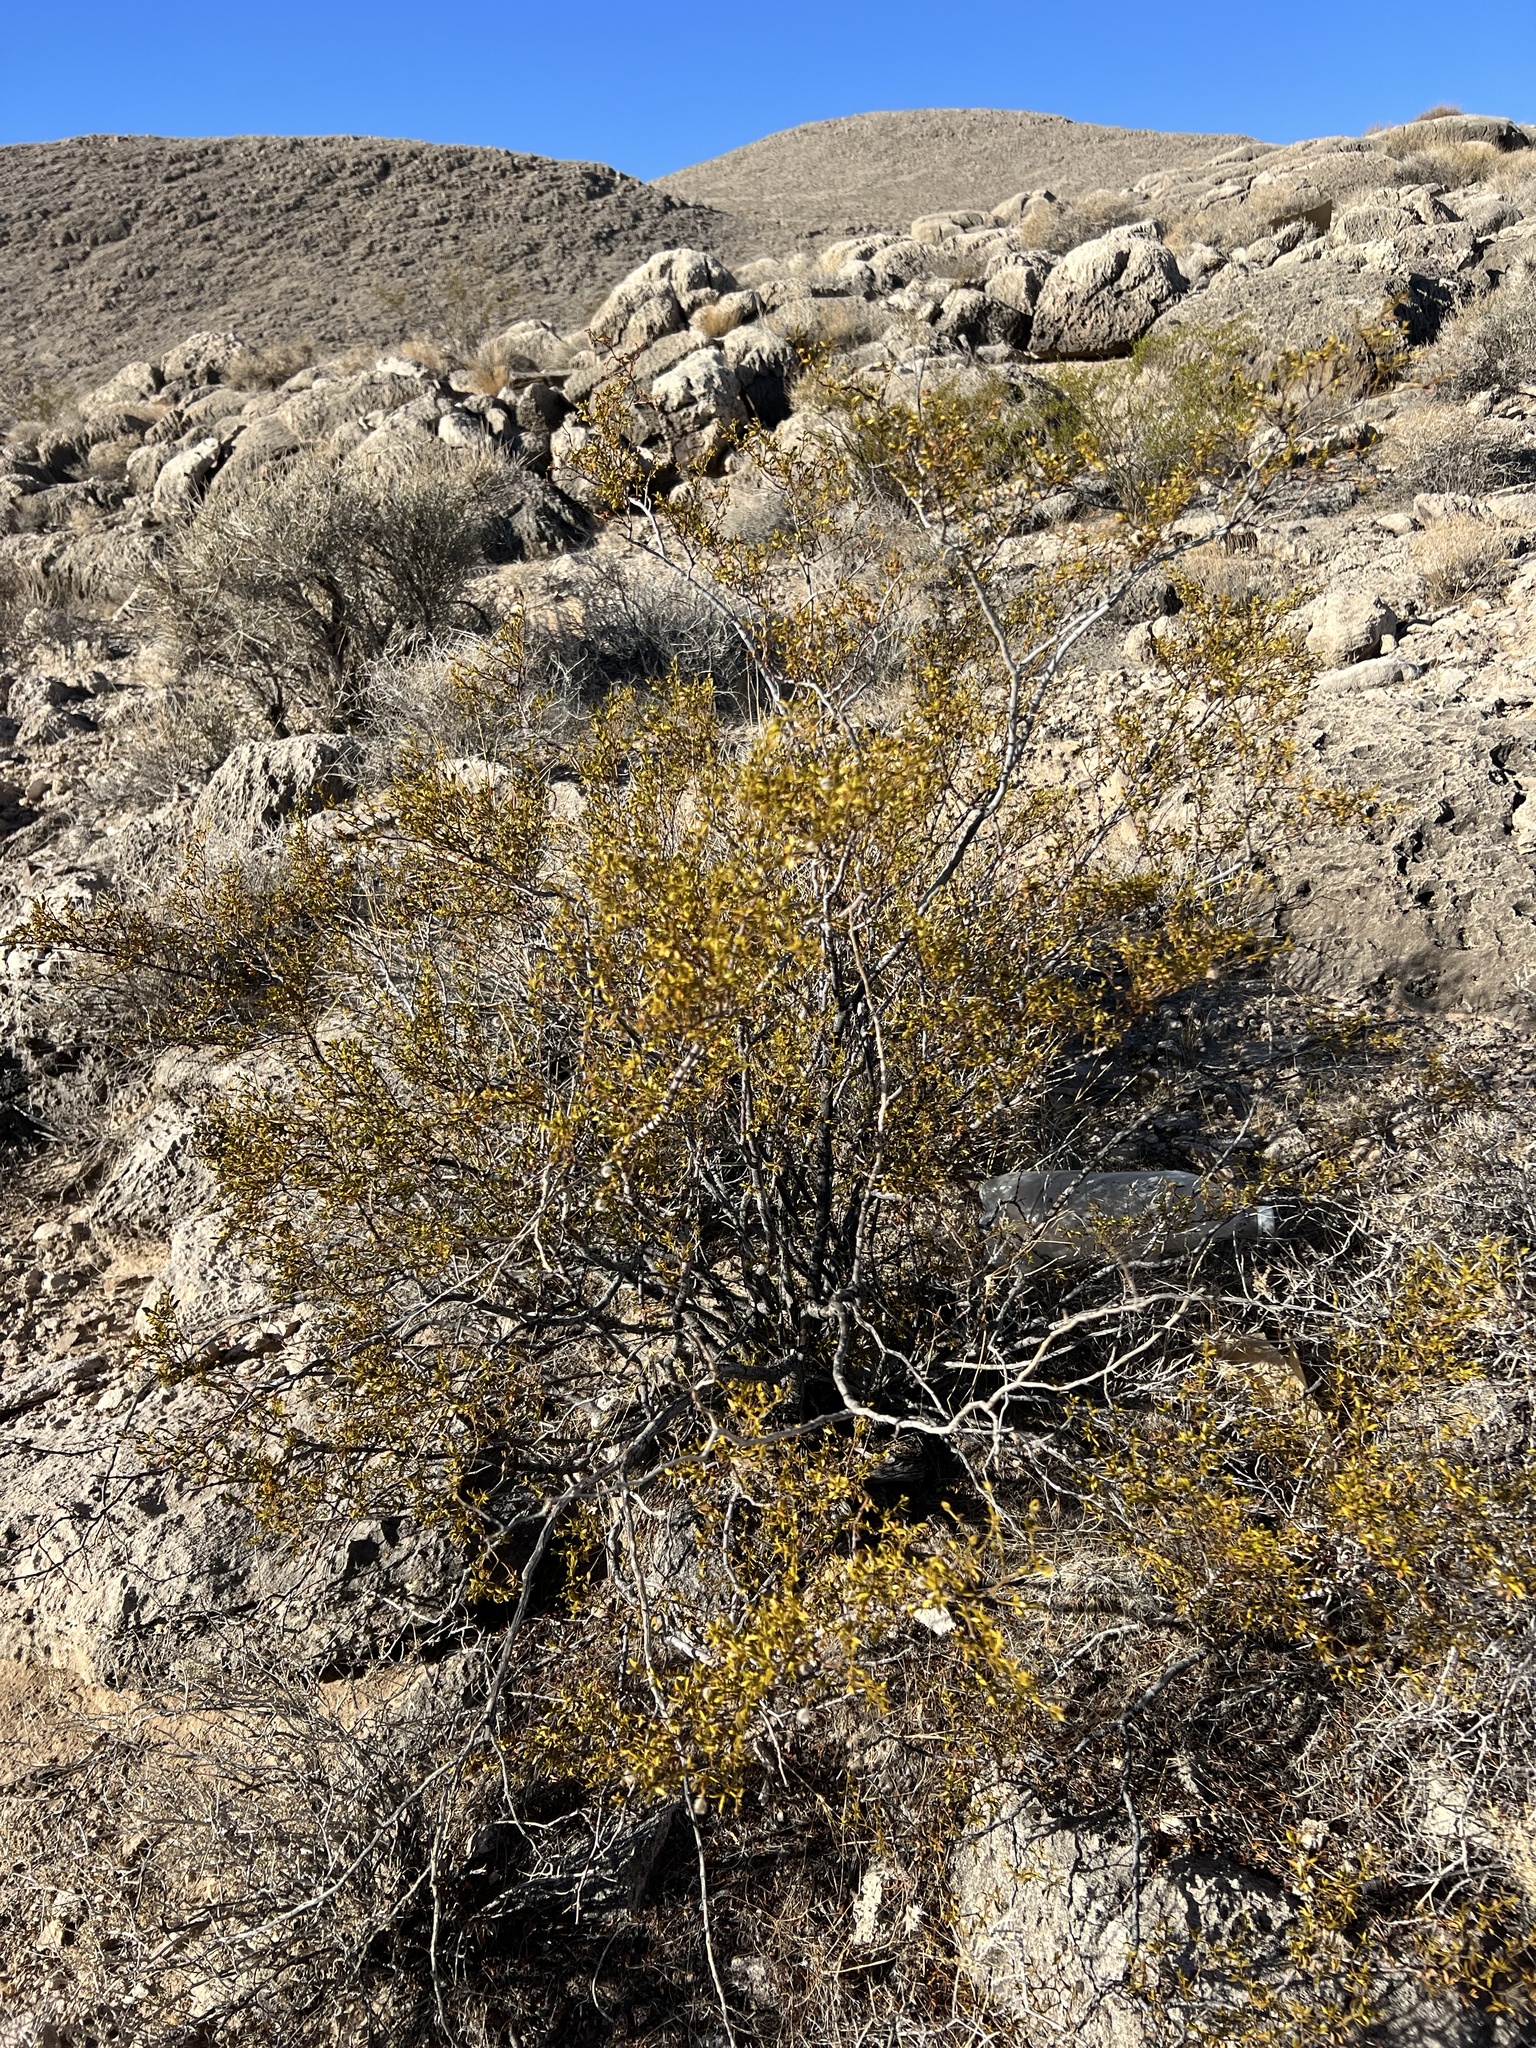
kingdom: Plantae
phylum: Tracheophyta
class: Magnoliopsida
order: Zygophyllales
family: Zygophyllaceae
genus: Larrea
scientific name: Larrea tridentata
